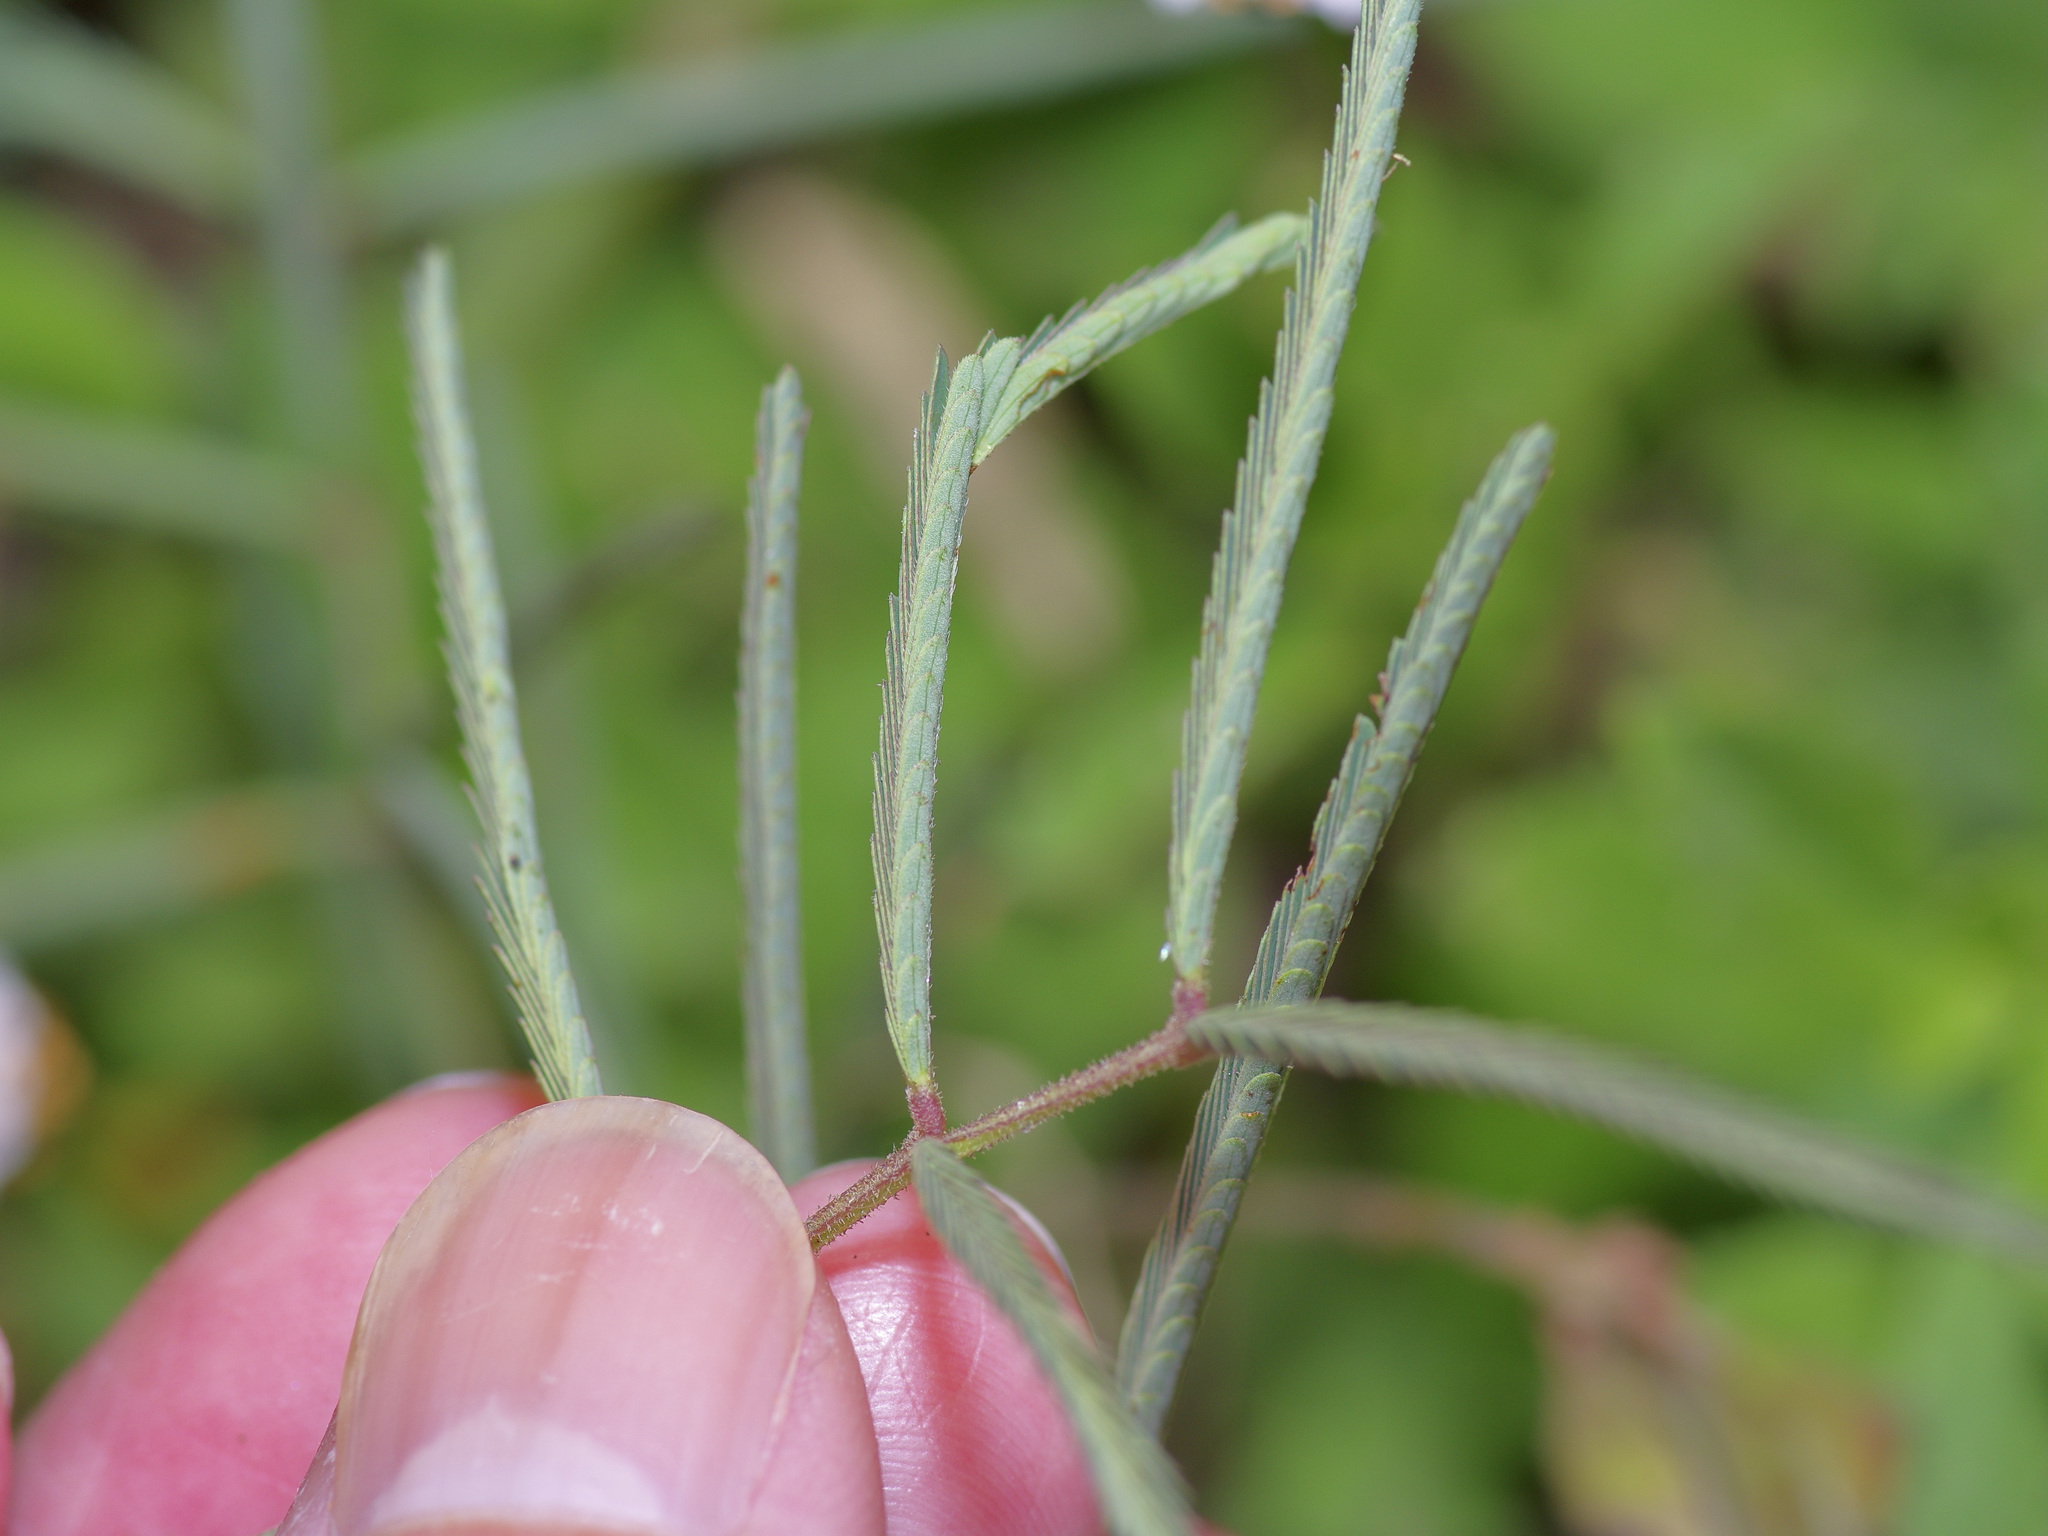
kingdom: Plantae
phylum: Tracheophyta
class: Magnoliopsida
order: Fabales
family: Fabaceae
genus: Neptunia
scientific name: Neptunia pubescens
